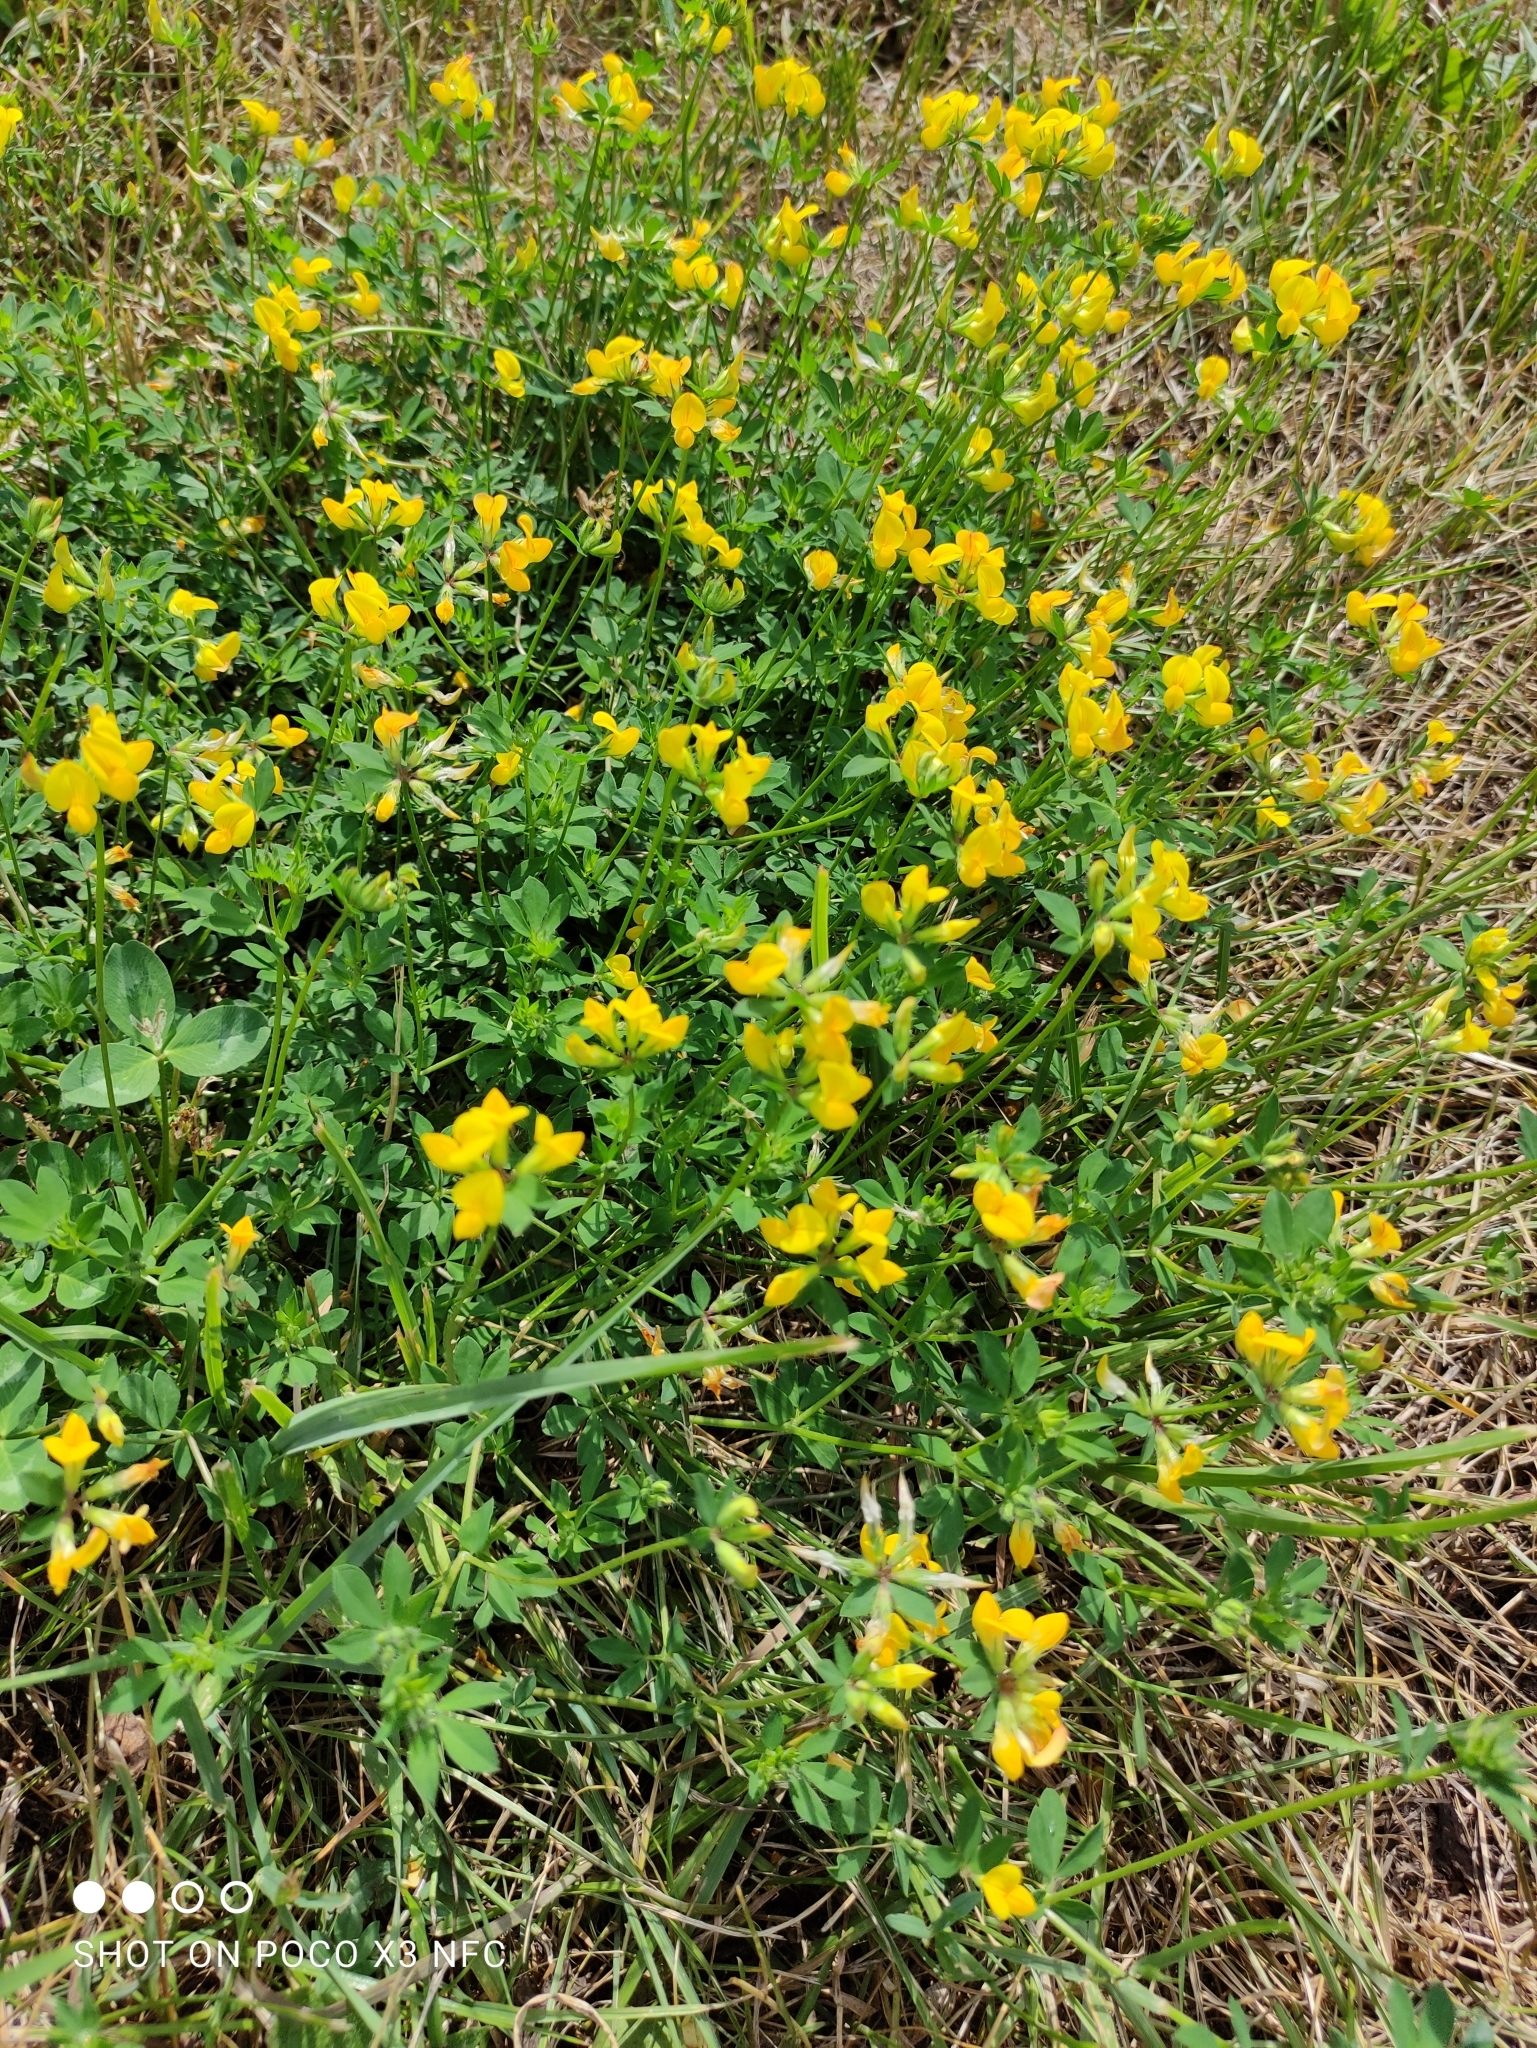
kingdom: Plantae
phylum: Tracheophyta
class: Magnoliopsida
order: Fabales
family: Fabaceae
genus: Lotus
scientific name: Lotus corniculatus
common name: Common bird's-foot-trefoil
